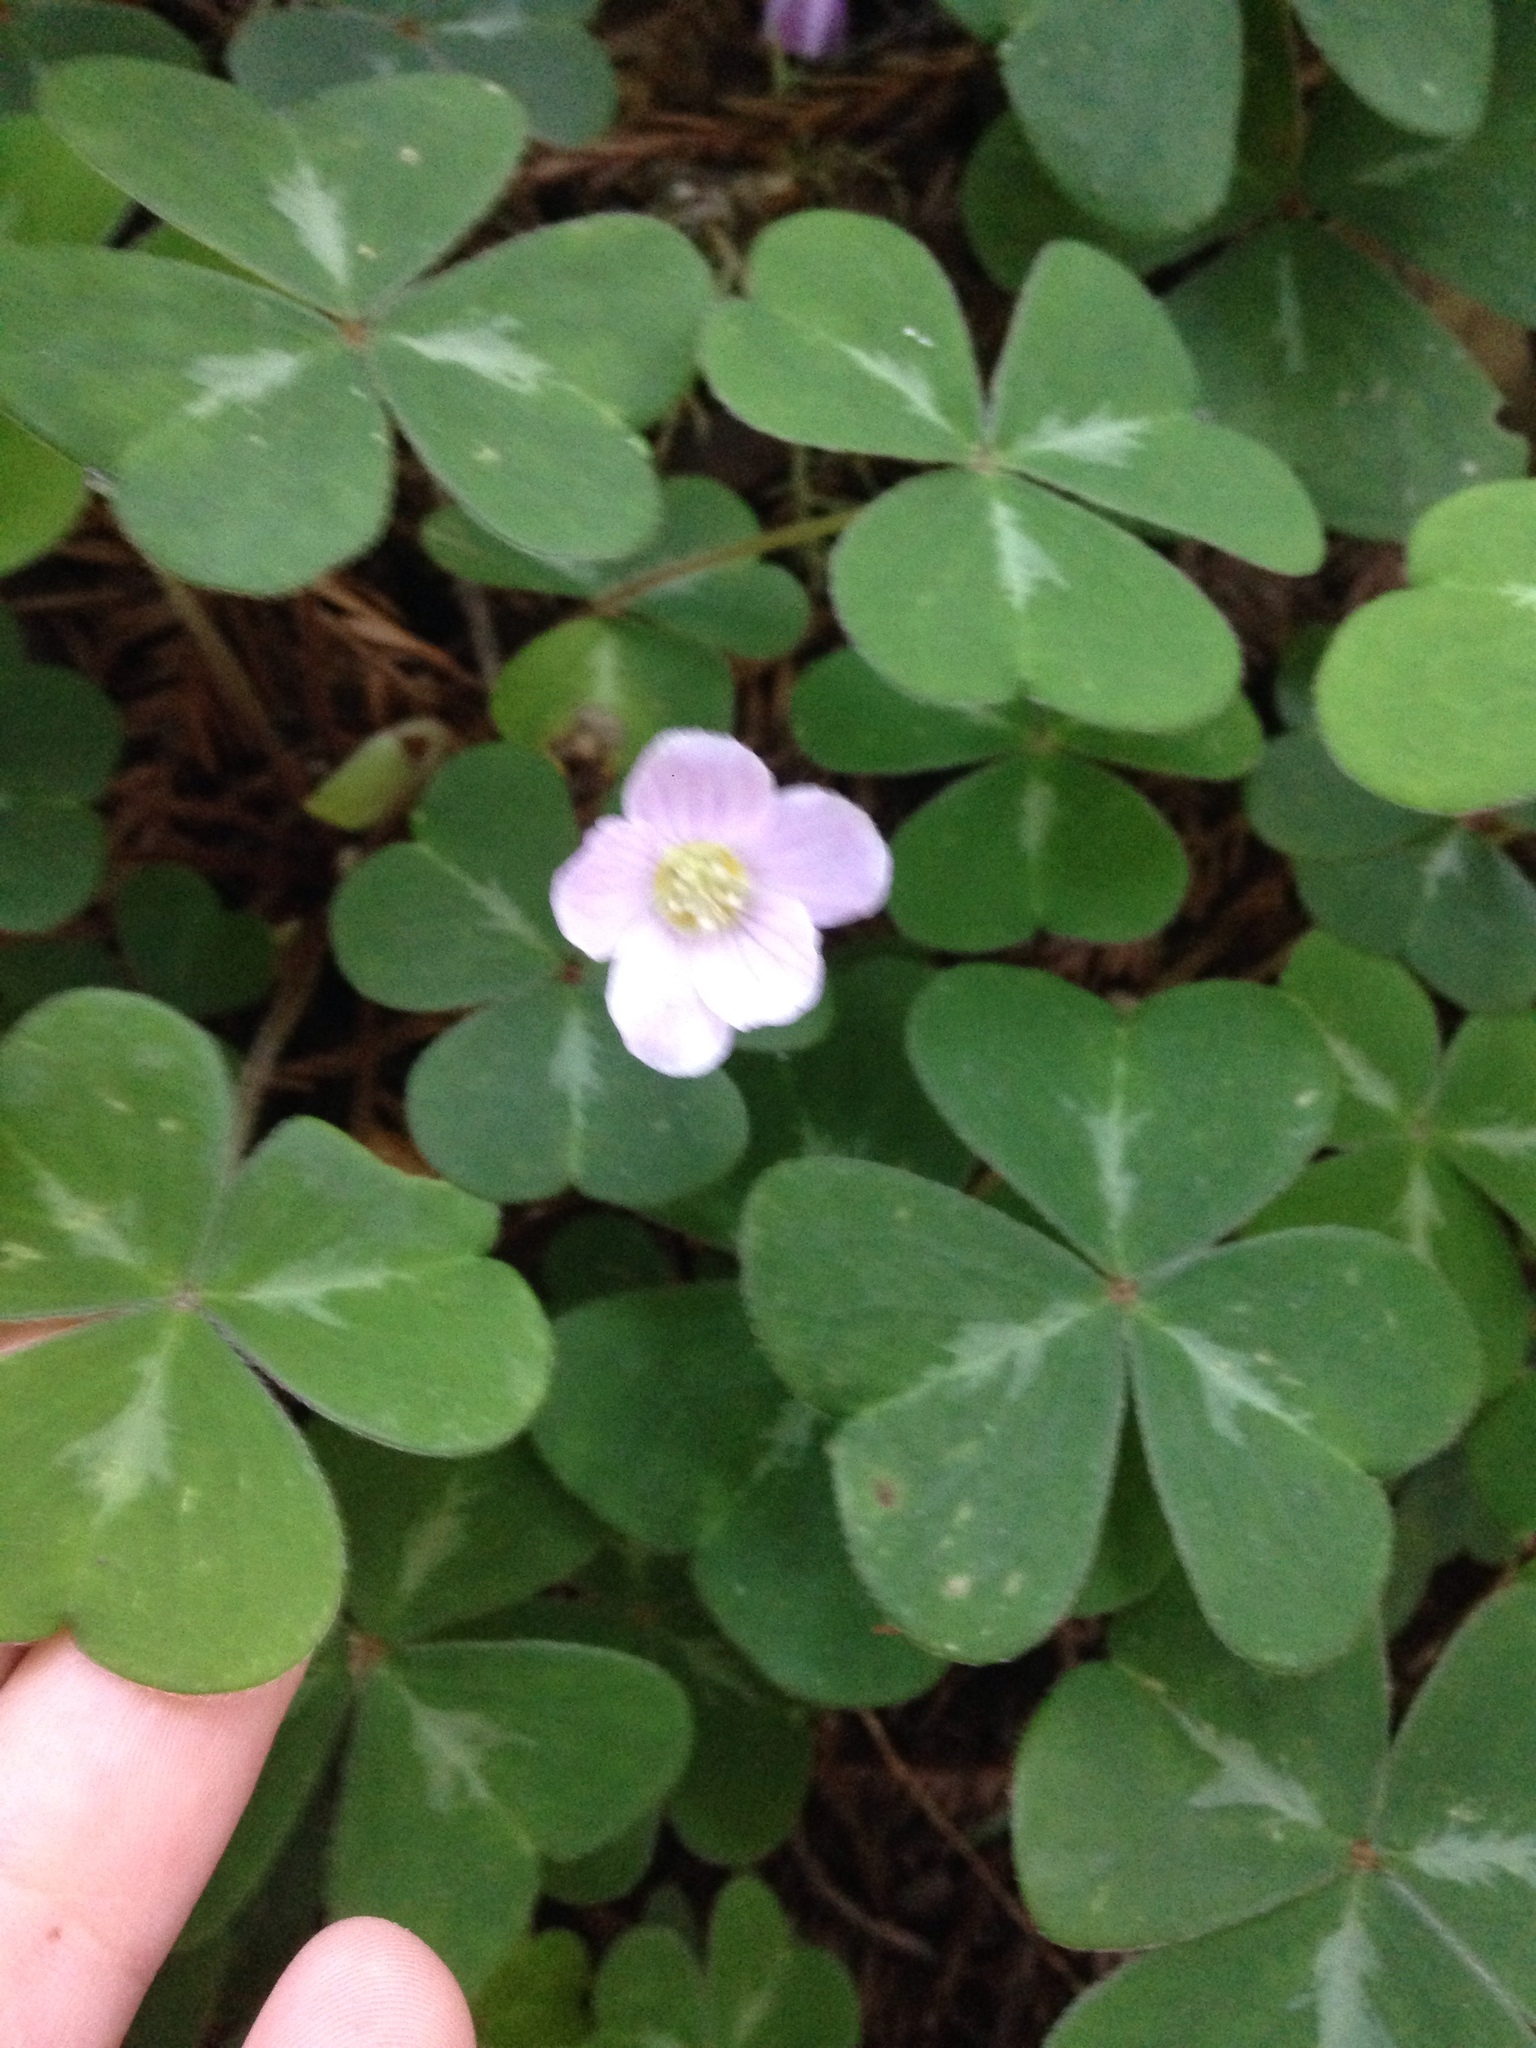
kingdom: Plantae
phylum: Tracheophyta
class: Magnoliopsida
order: Oxalidales
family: Oxalidaceae
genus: Oxalis
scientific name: Oxalis oregana
